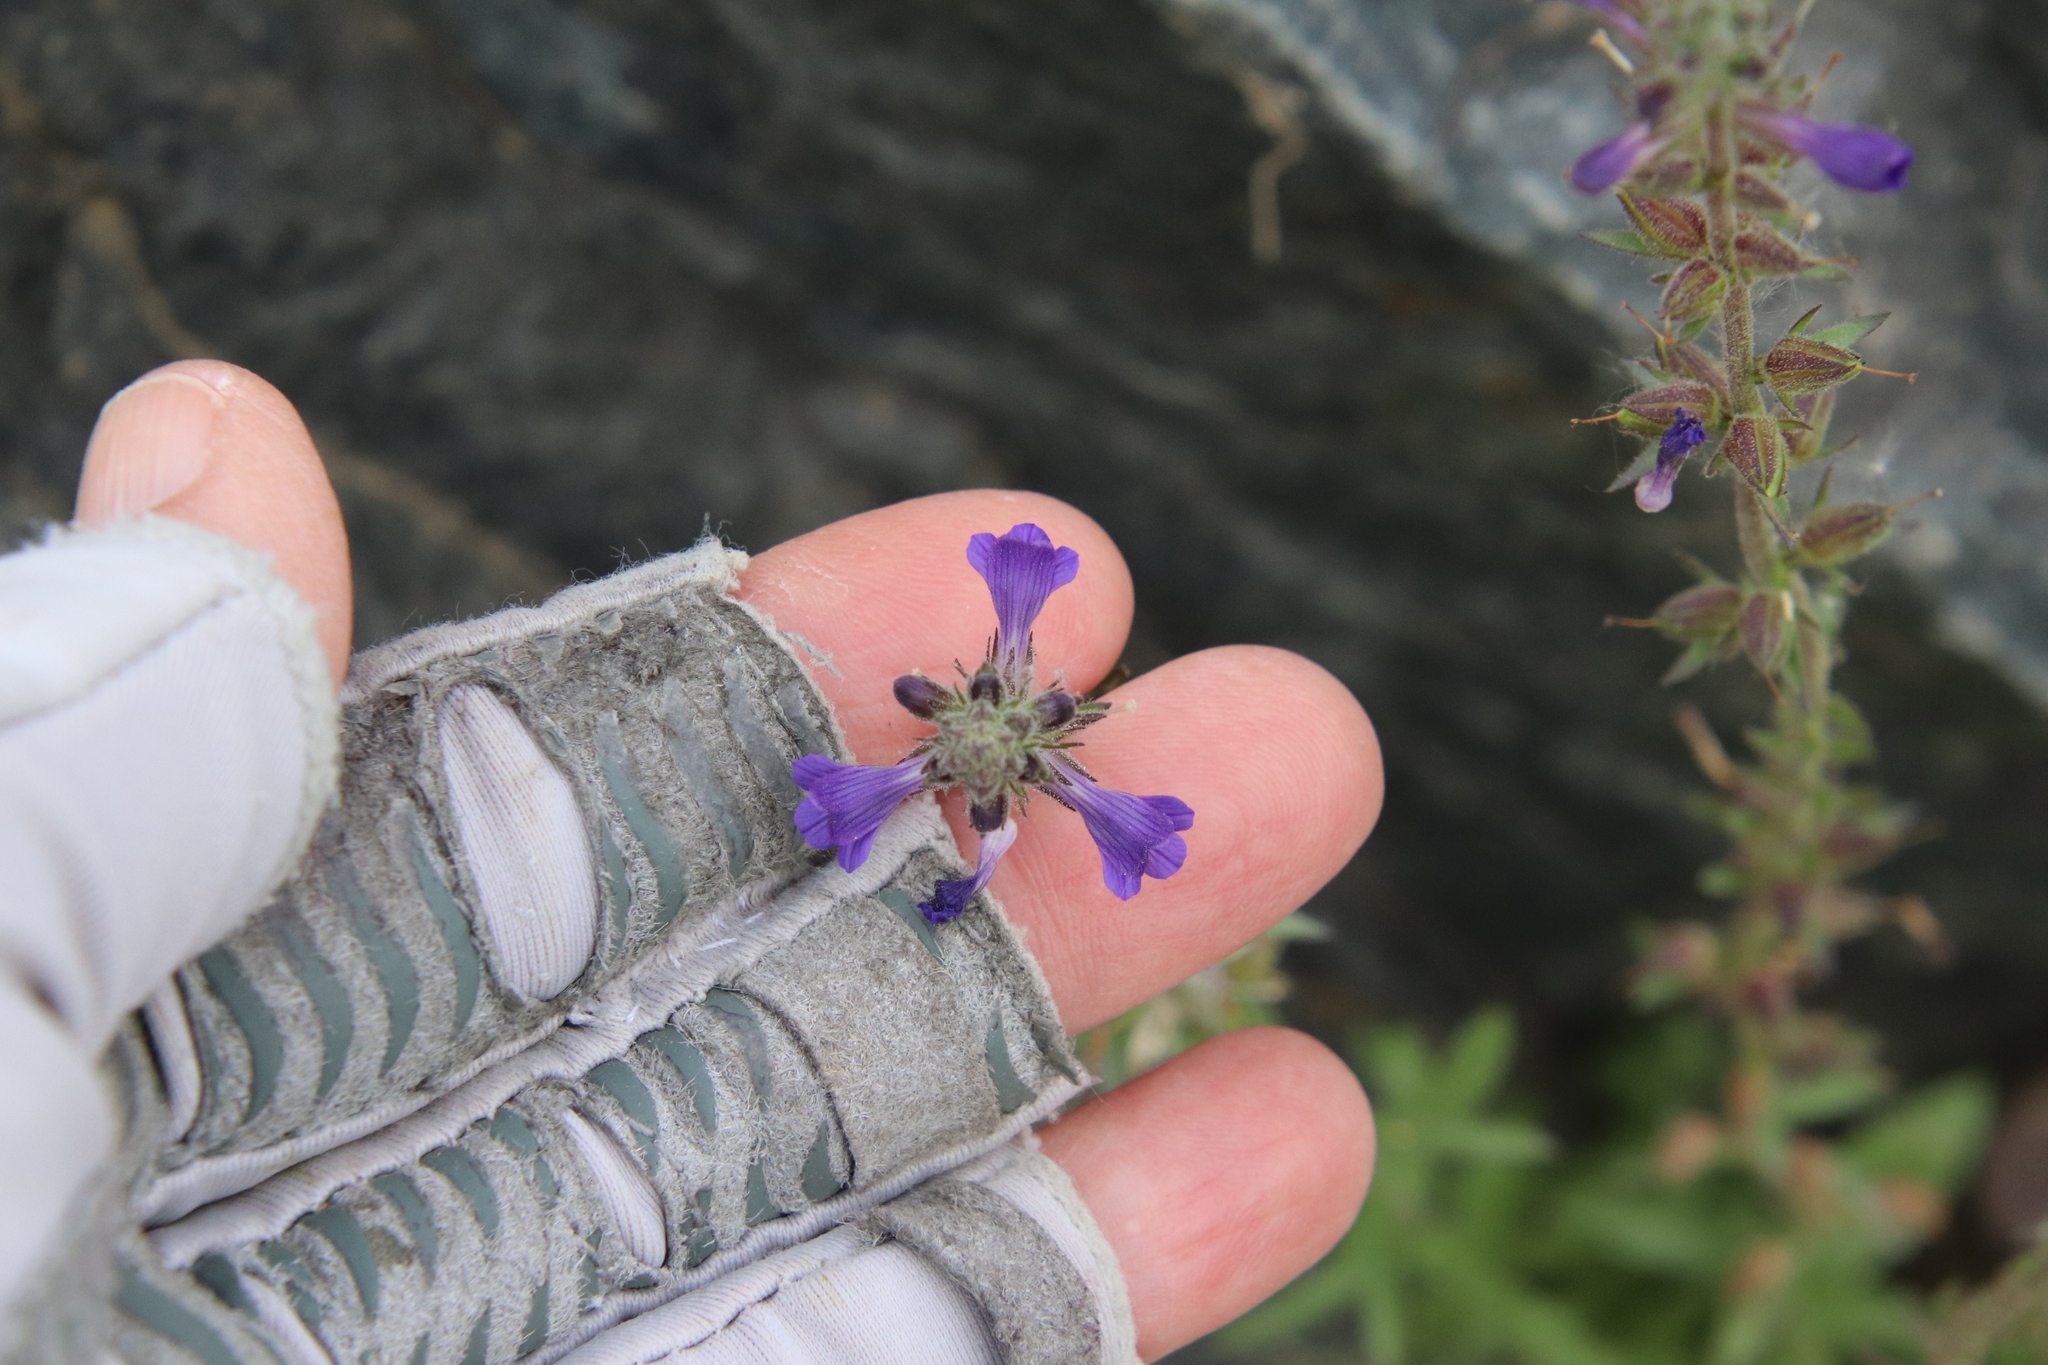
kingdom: Plantae
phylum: Tracheophyta
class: Magnoliopsida
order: Lamiales
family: Plantaginaceae
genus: Stemodia
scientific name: Stemodia durantifolia
